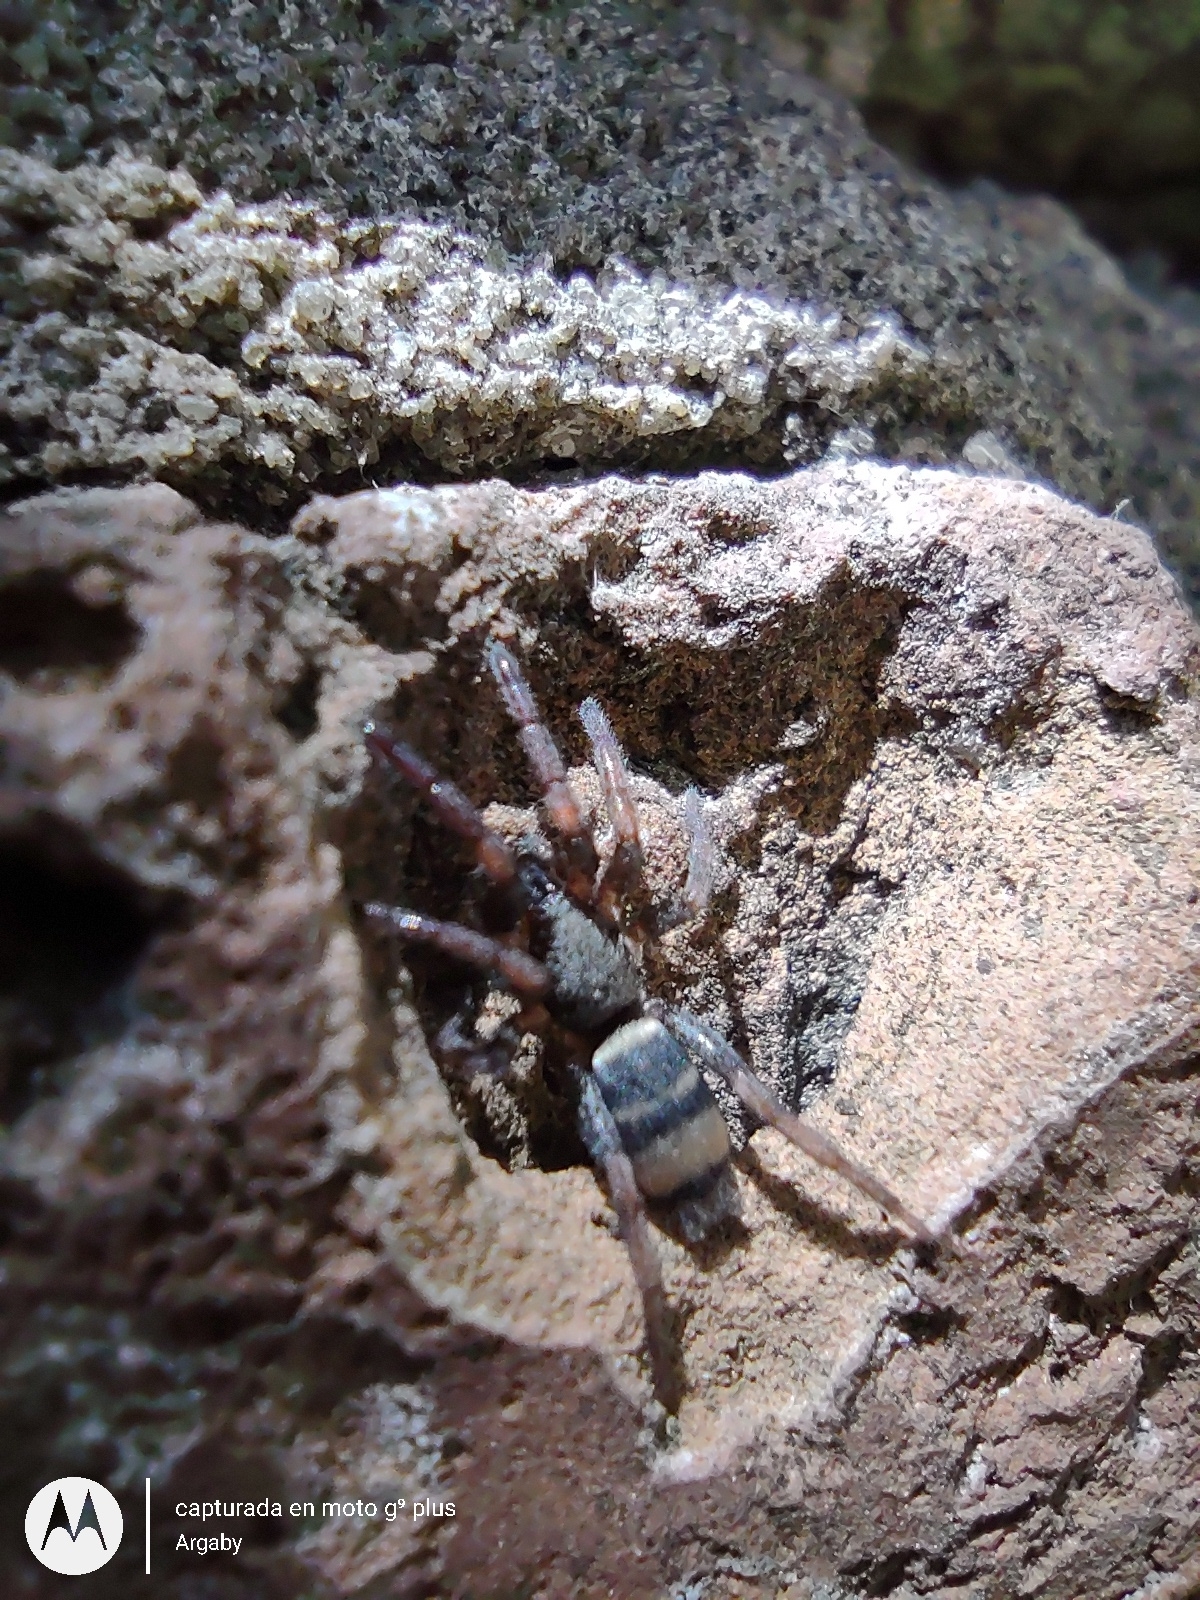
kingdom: Animalia
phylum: Arthropoda
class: Arachnida
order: Araneae
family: Gnaphosidae
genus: Latonigena
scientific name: Latonigena auricomis
